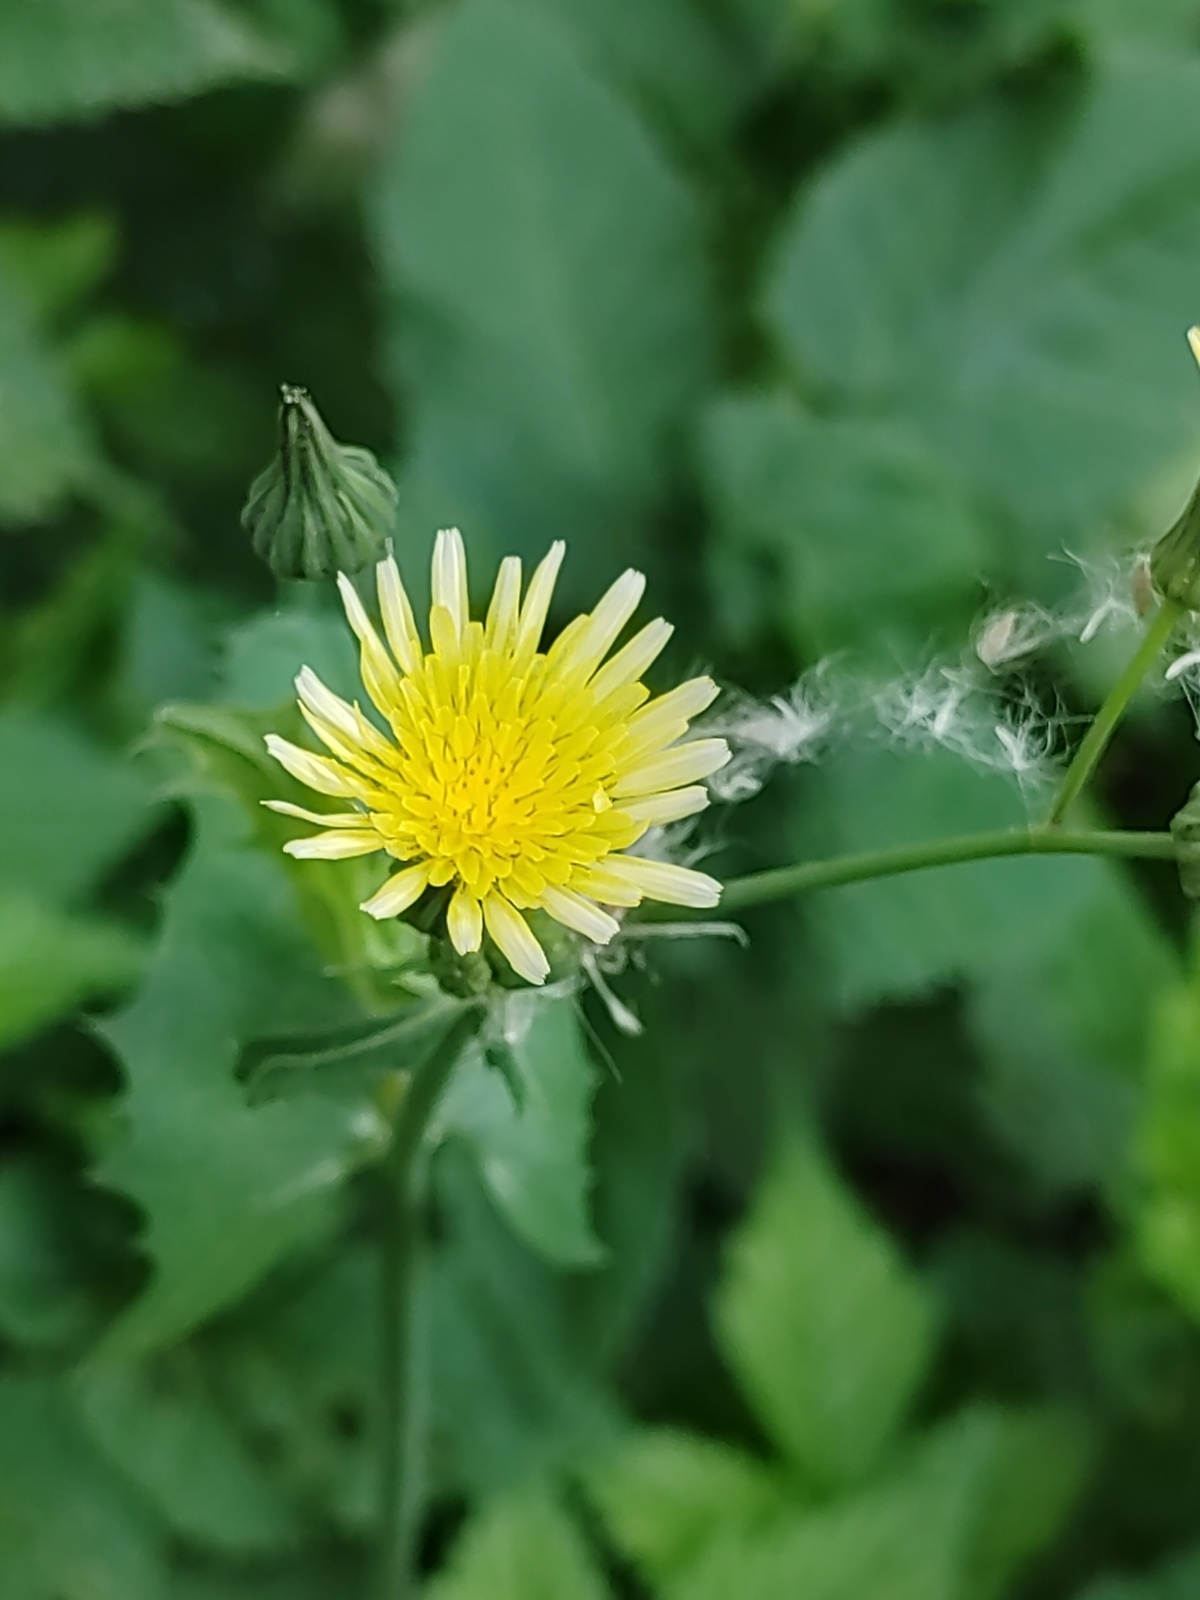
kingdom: Plantae
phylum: Tracheophyta
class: Magnoliopsida
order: Asterales
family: Asteraceae
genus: Sonchus
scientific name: Sonchus oleraceus
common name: Common sowthistle
